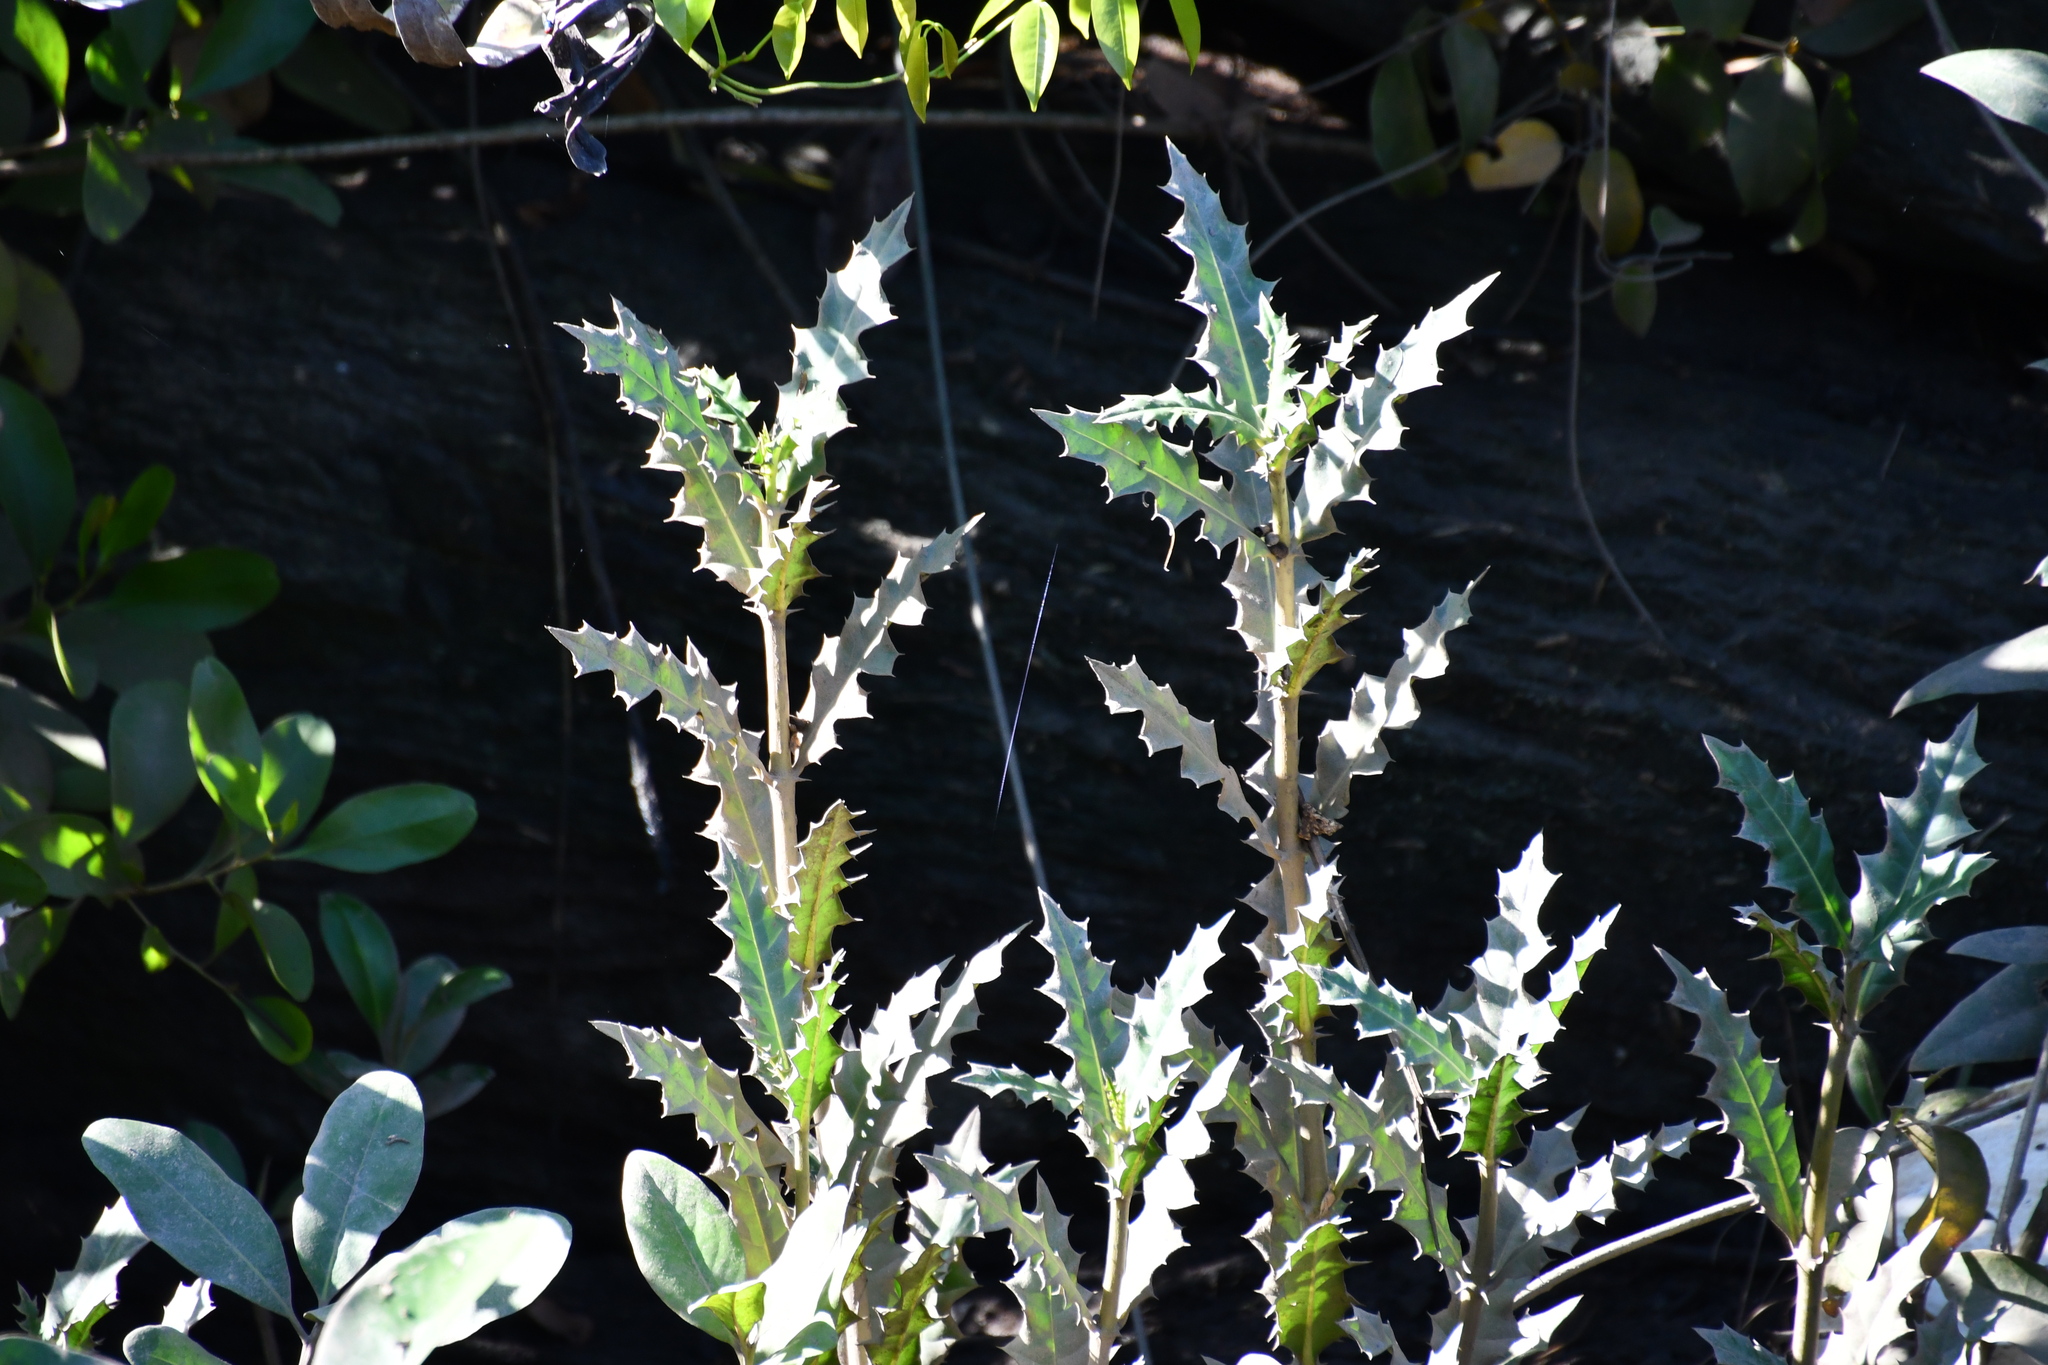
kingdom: Plantae
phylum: Tracheophyta
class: Magnoliopsida
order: Lamiales
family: Acanthaceae
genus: Acanthus
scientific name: Acanthus ilicifolius
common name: Holy mangrove
